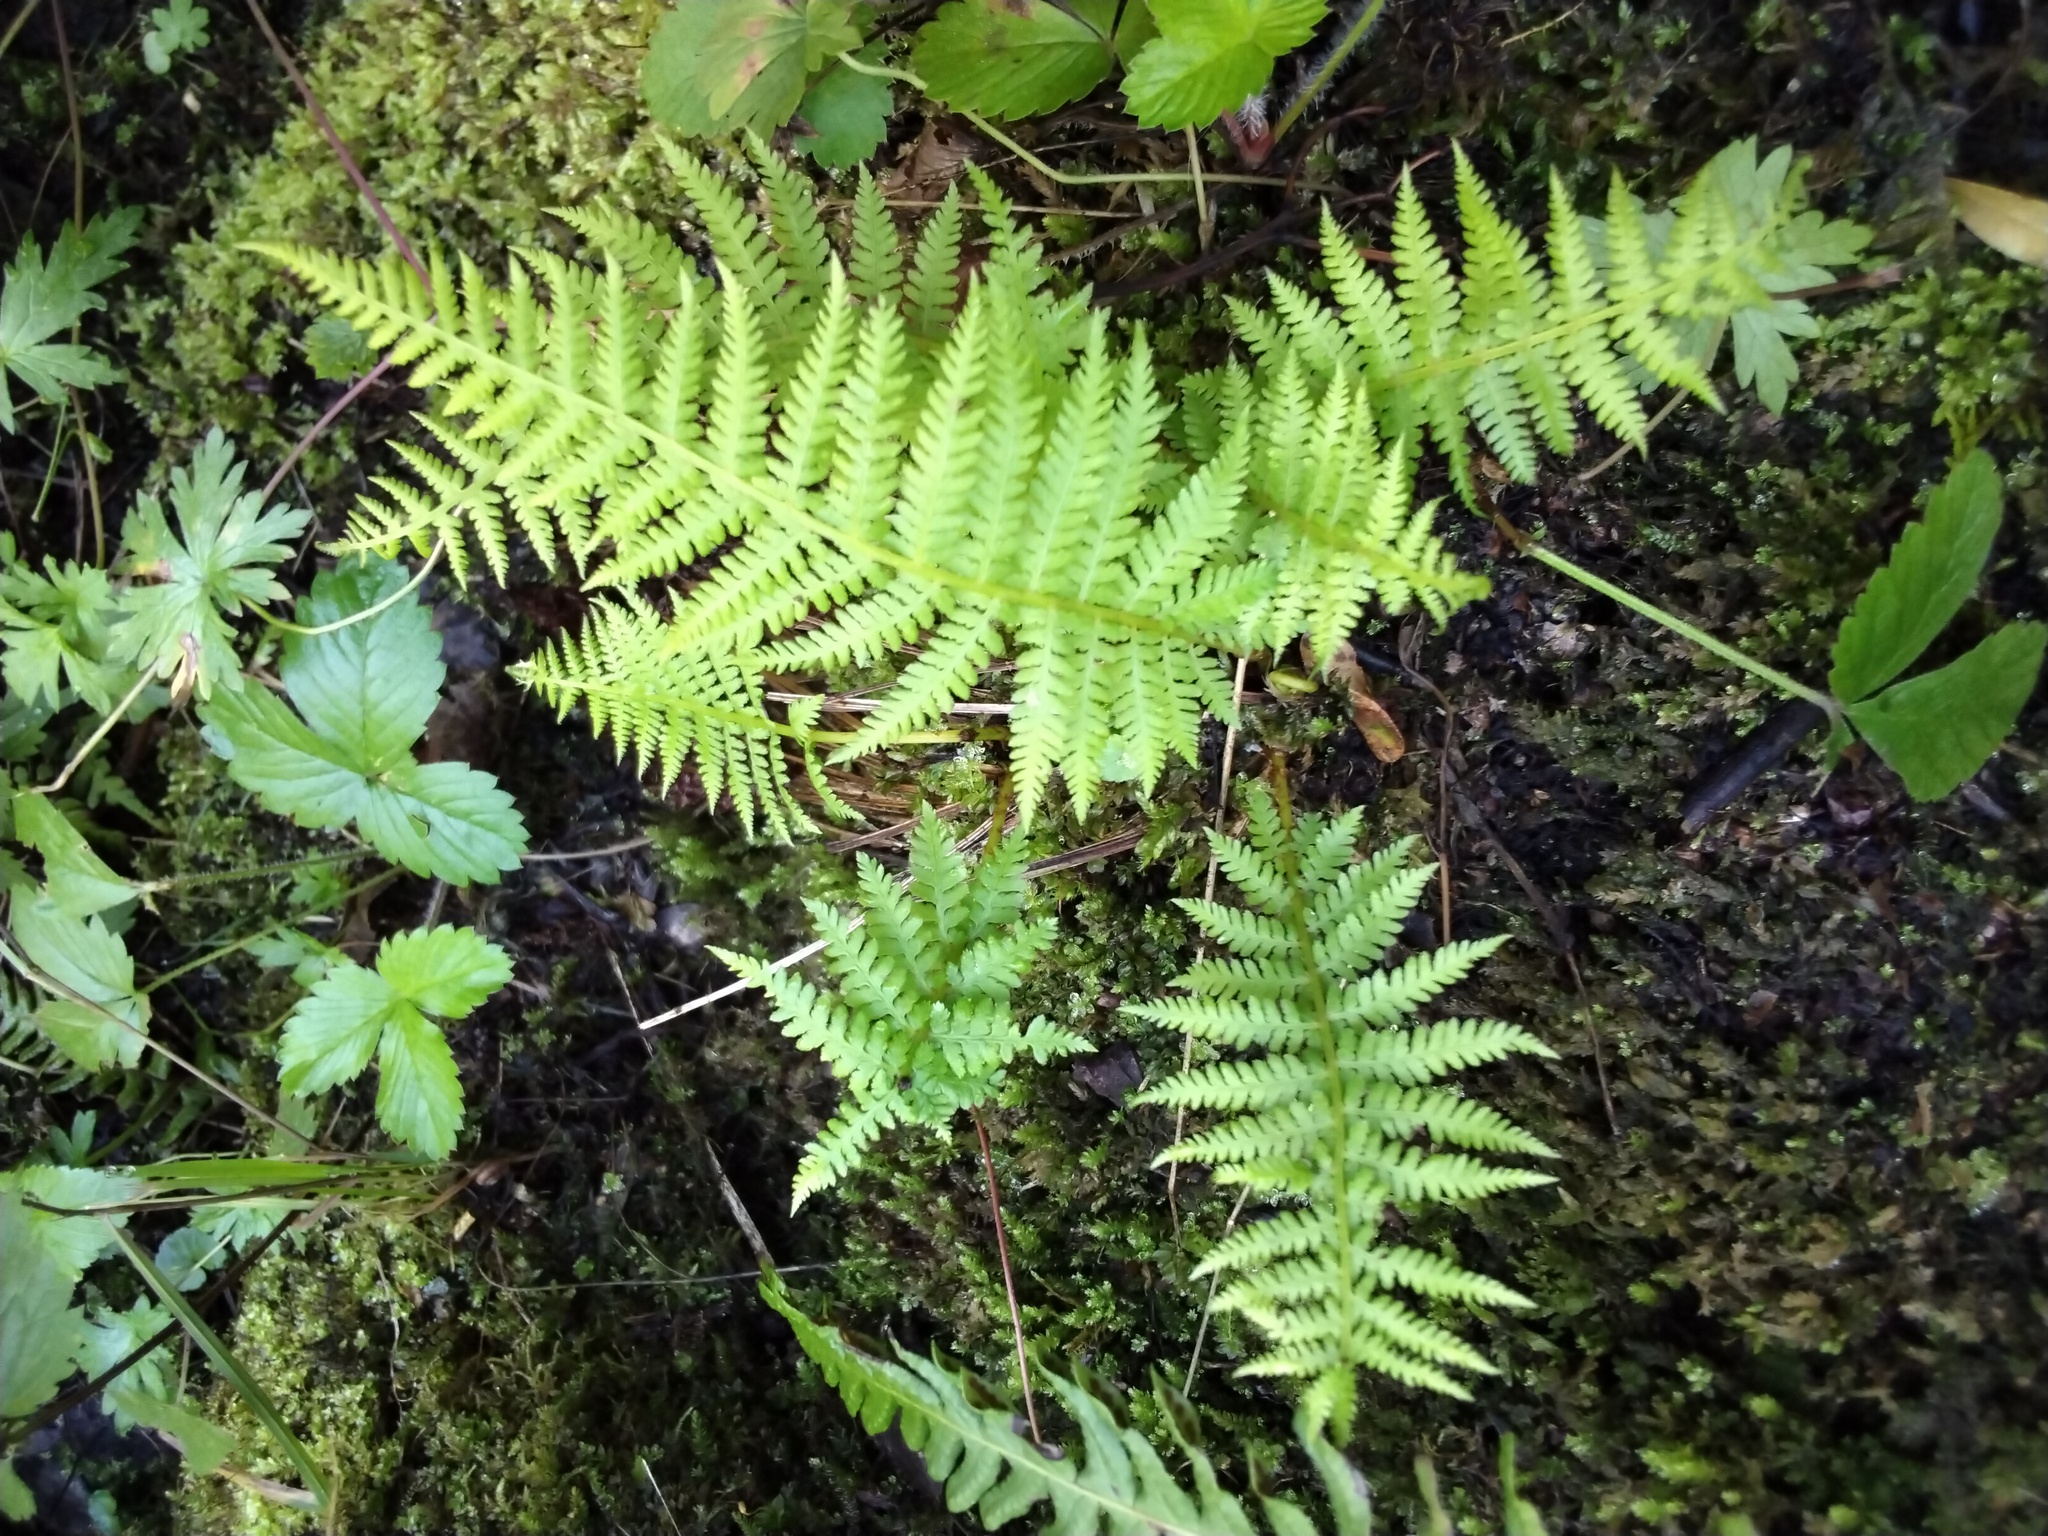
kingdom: Plantae
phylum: Tracheophyta
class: Polypodiopsida
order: Polypodiales
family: Athyriaceae
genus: Athyrium
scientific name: Athyrium filix-femina
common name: Lady fern
